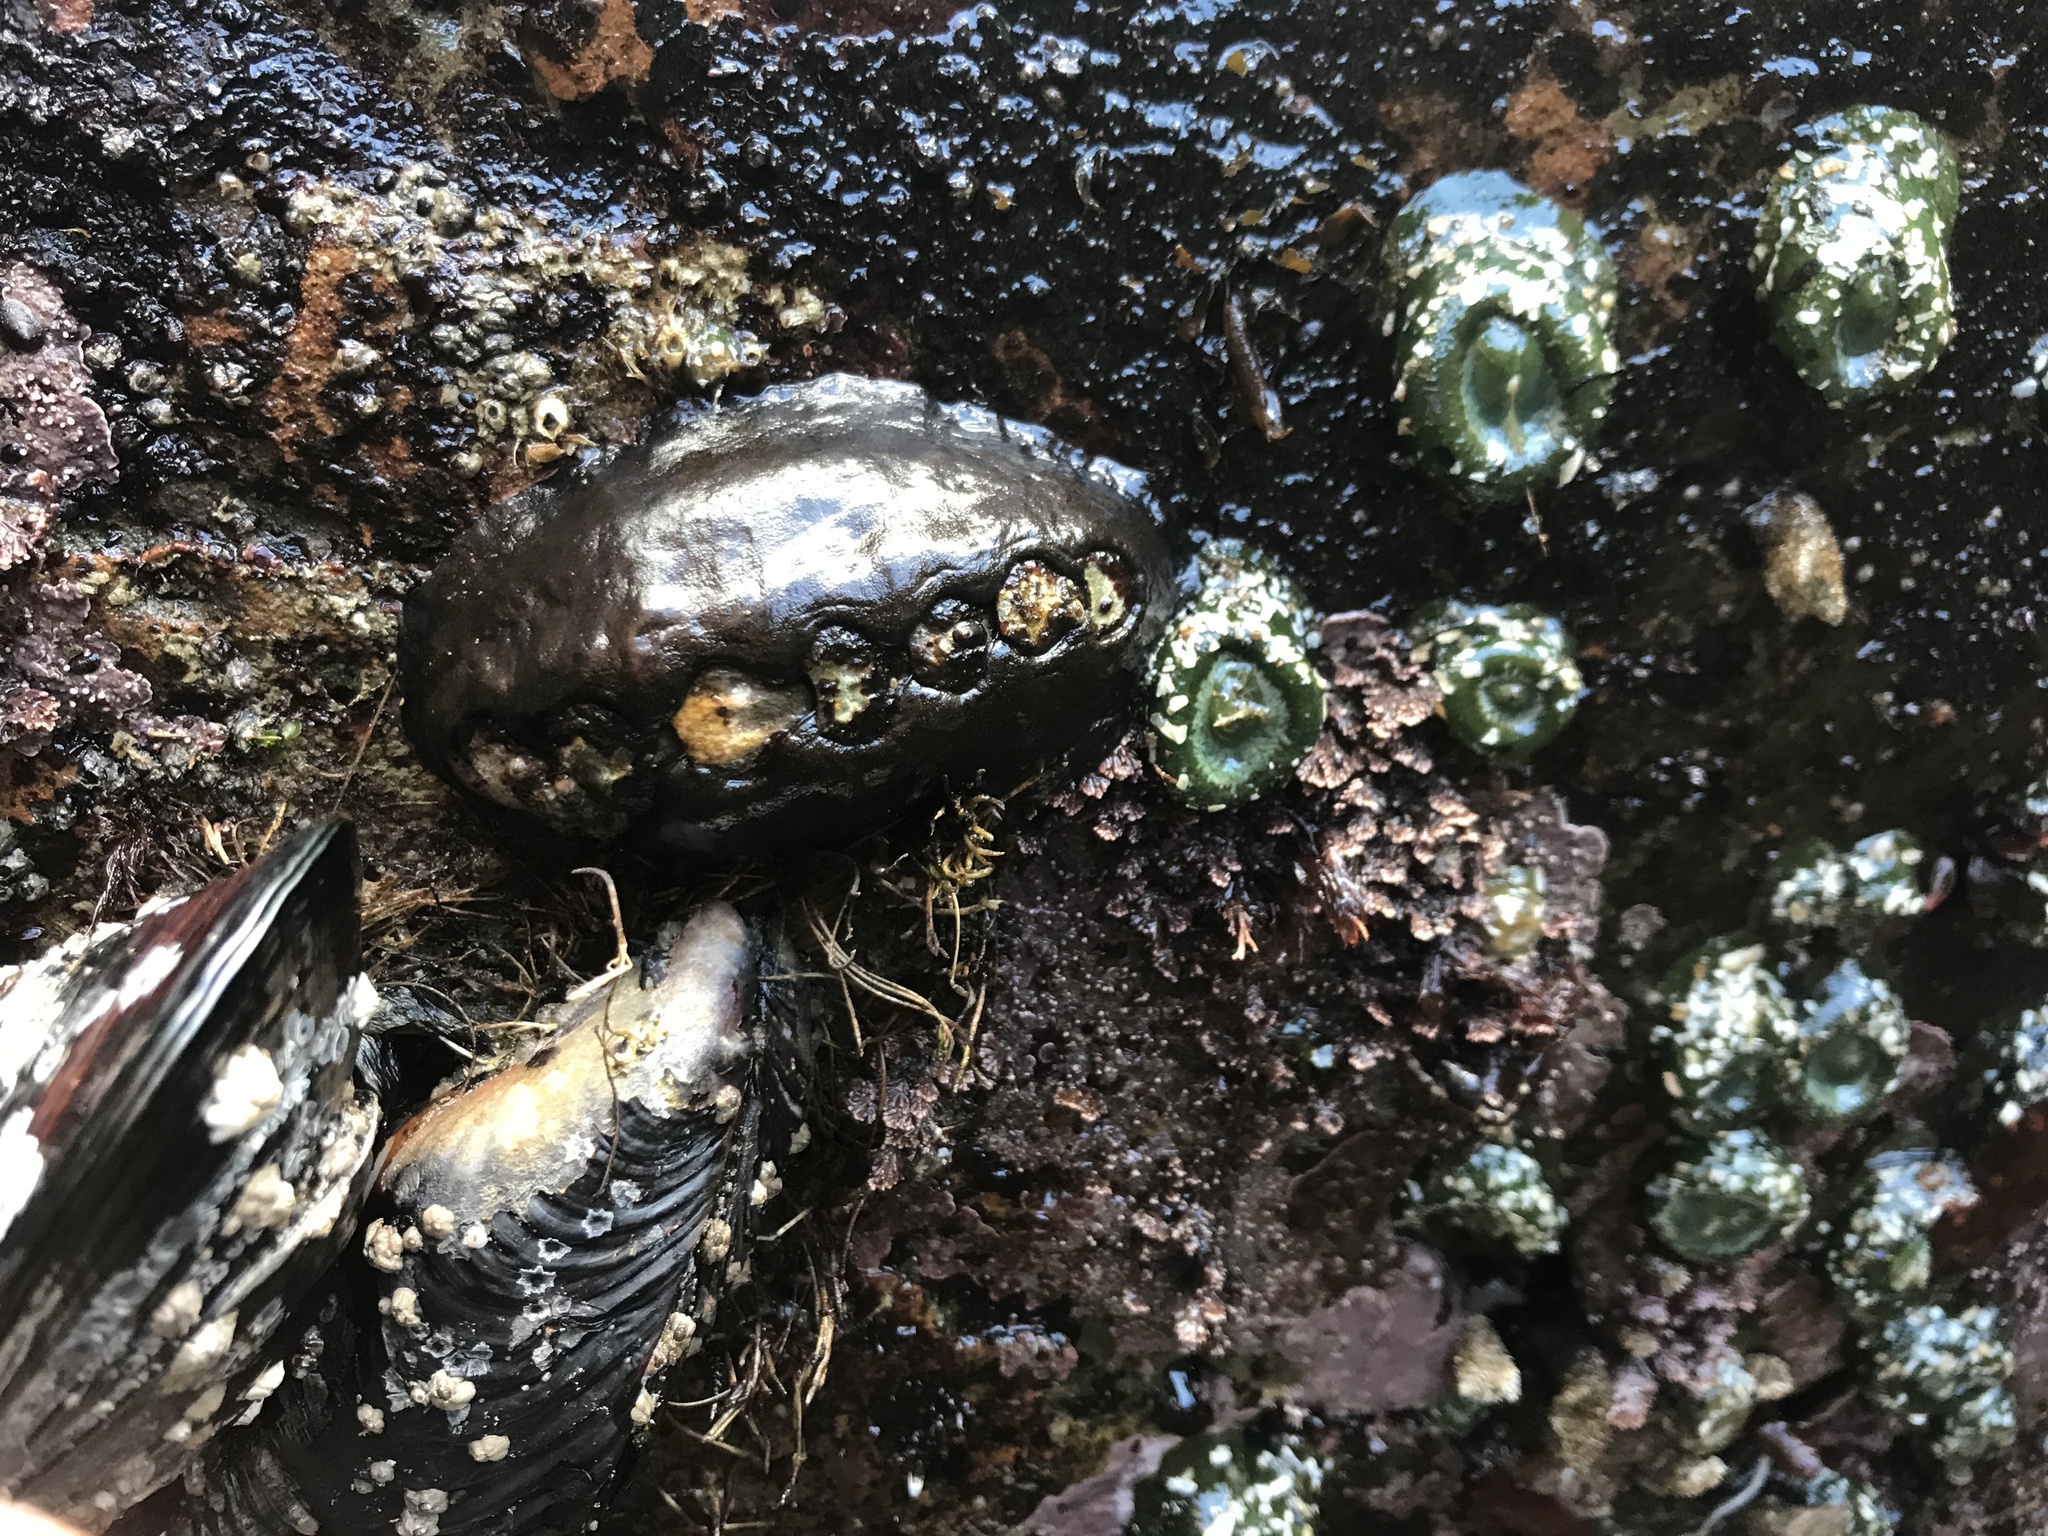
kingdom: Animalia
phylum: Mollusca
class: Polyplacophora
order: Chitonida
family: Mopaliidae
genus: Katharina
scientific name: Katharina tunicata
